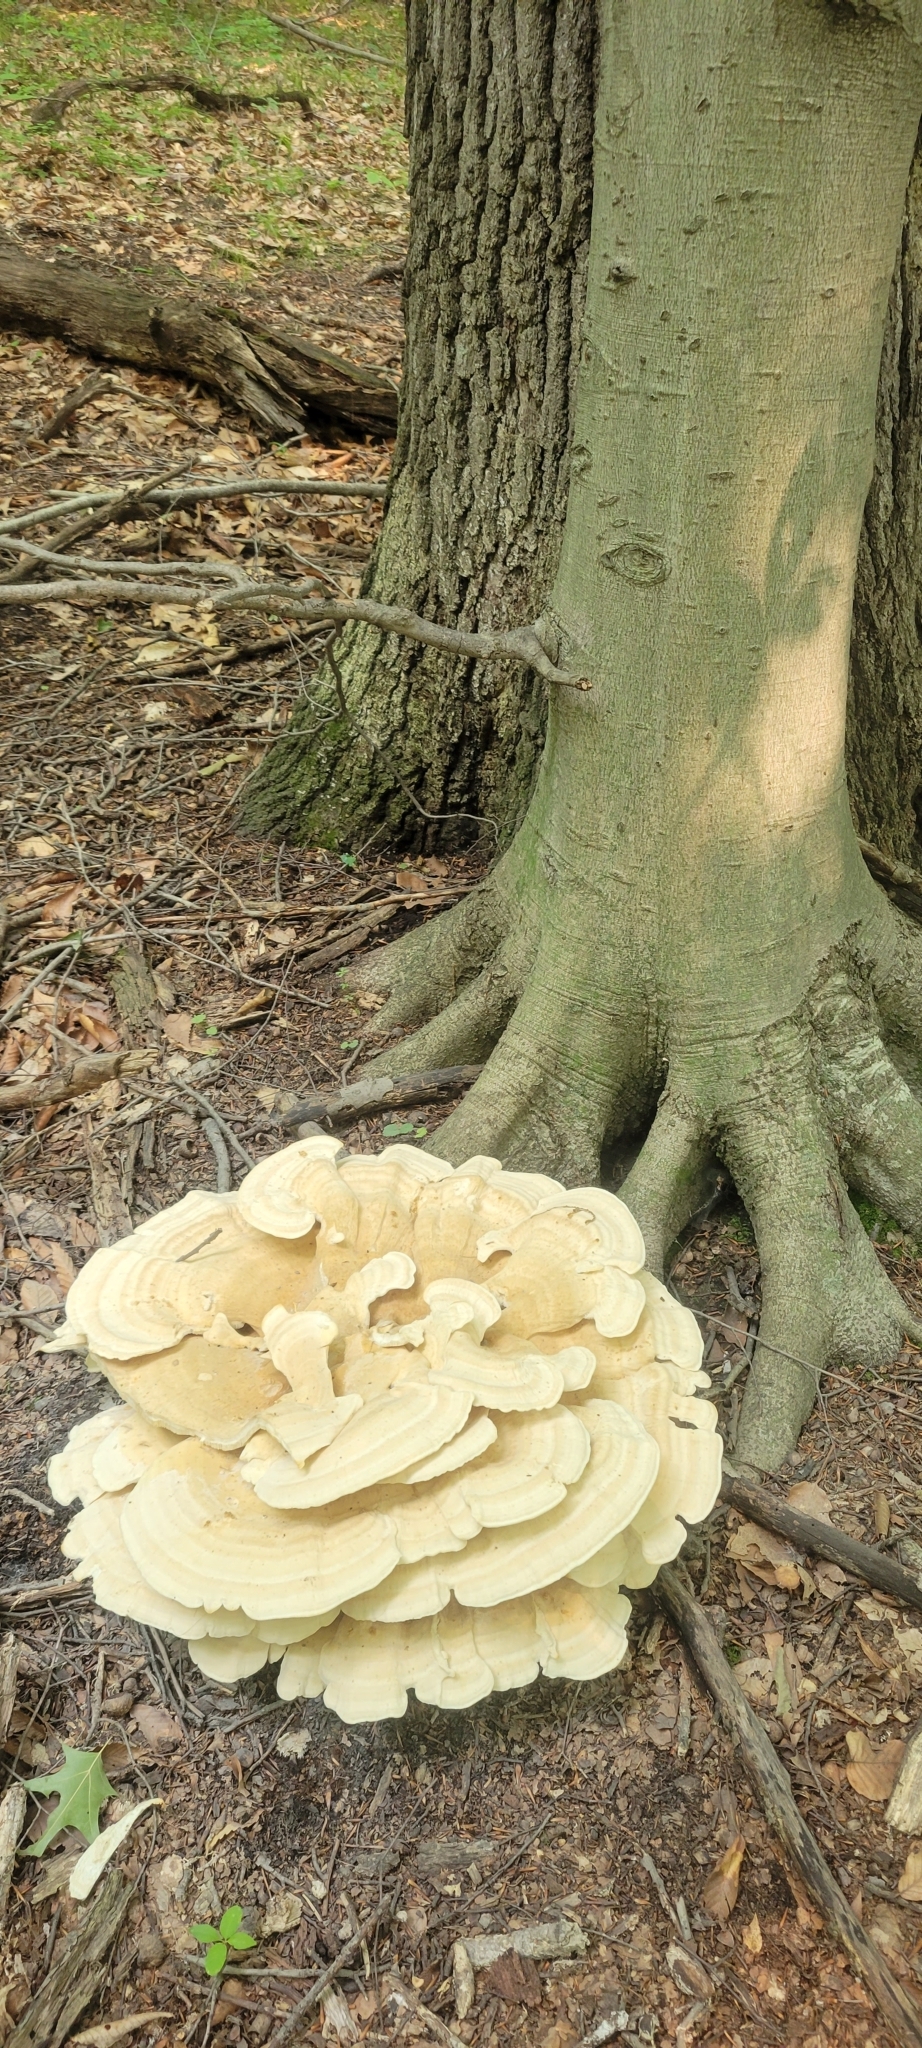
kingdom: Fungi
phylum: Basidiomycota
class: Agaricomycetes
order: Russulales
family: Bondarzewiaceae
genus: Bondarzewia
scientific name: Bondarzewia berkeleyi
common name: Berkeley's polypore
